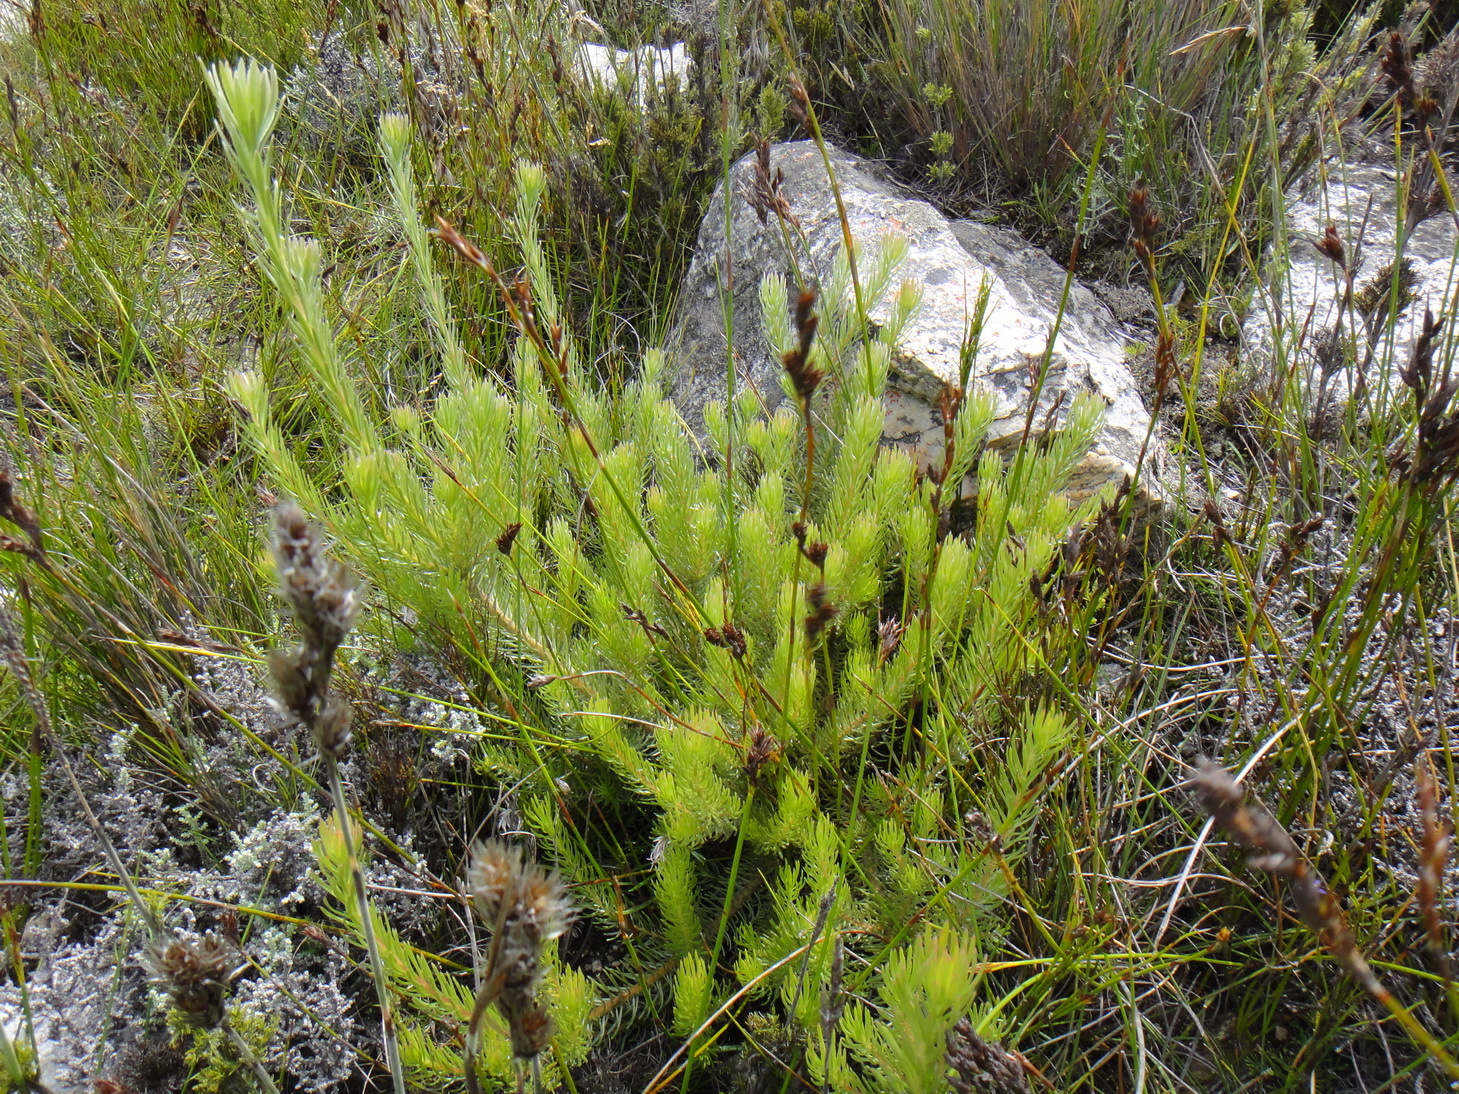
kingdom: Plantae
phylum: Tracheophyta
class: Magnoliopsida
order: Proteales
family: Proteaceae
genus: Leucadendron
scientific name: Leucadendron singulare
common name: Kammanassie conebush
